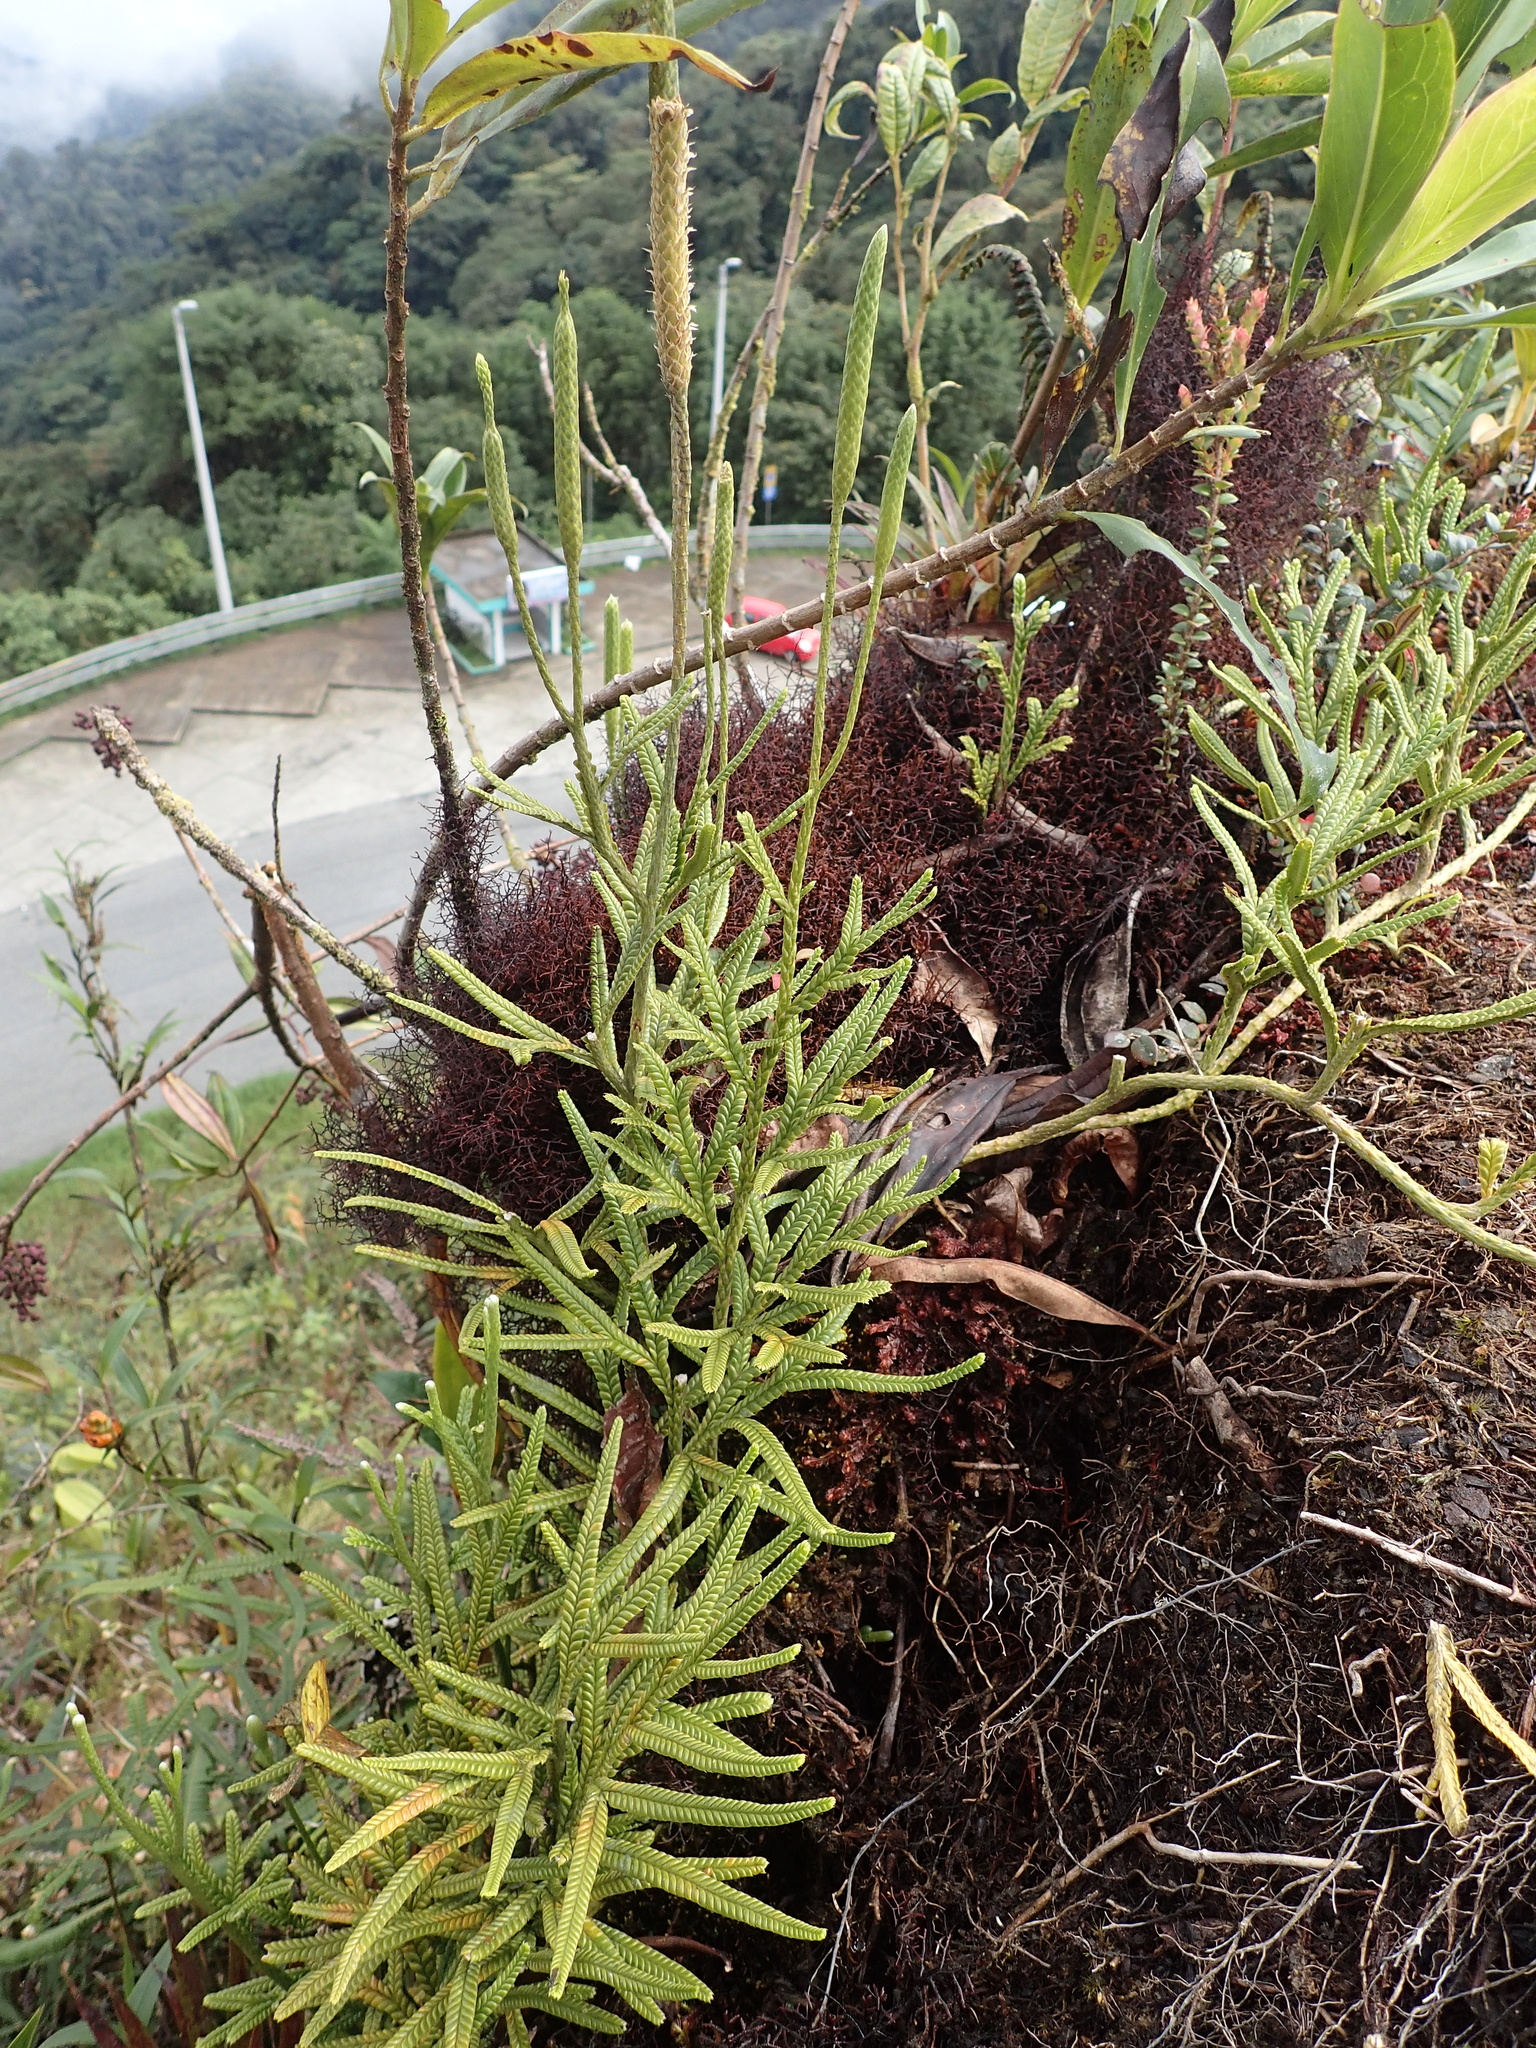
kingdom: Plantae
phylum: Tracheophyta
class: Lycopodiopsida
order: Lycopodiales
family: Lycopodiaceae
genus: Diphasium
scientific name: Diphasium jussiaei
